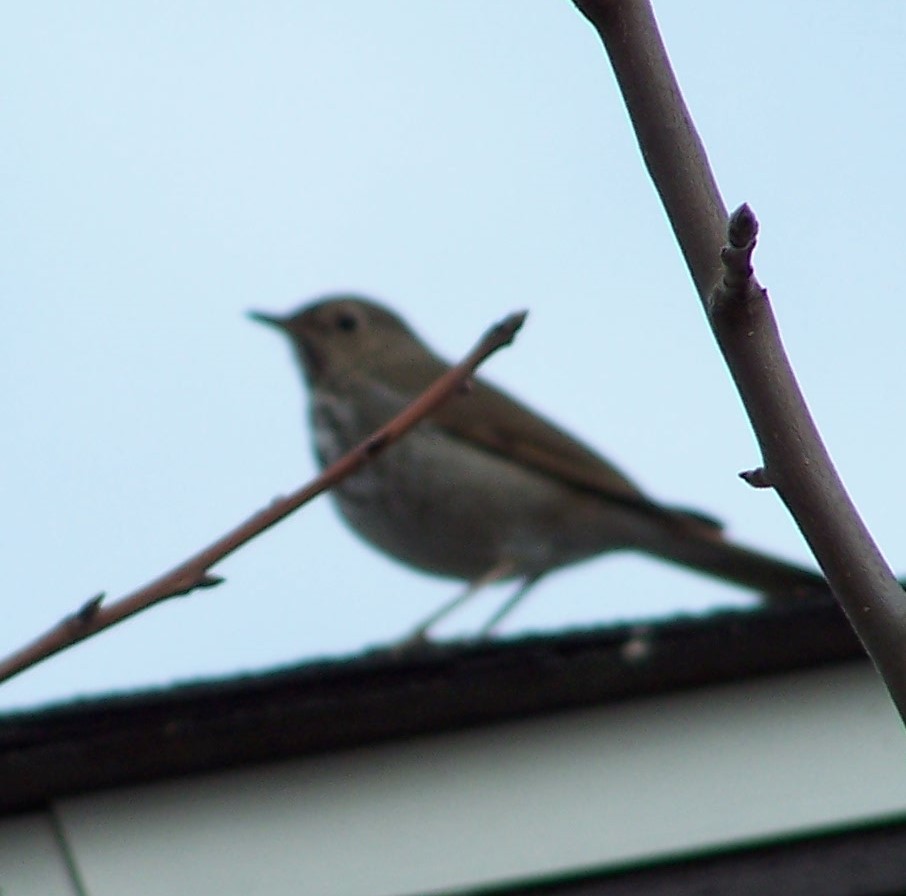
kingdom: Animalia
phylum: Chordata
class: Aves
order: Passeriformes
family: Turdidae
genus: Catharus
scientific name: Catharus guttatus
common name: Hermit thrush
